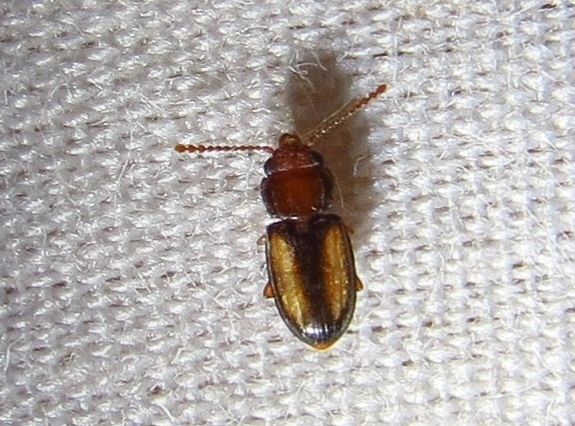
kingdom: Animalia
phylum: Arthropoda
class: Insecta
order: Coleoptera
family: Laemophloeidae
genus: Laemophloeus
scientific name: Laemophloeus terminalis
